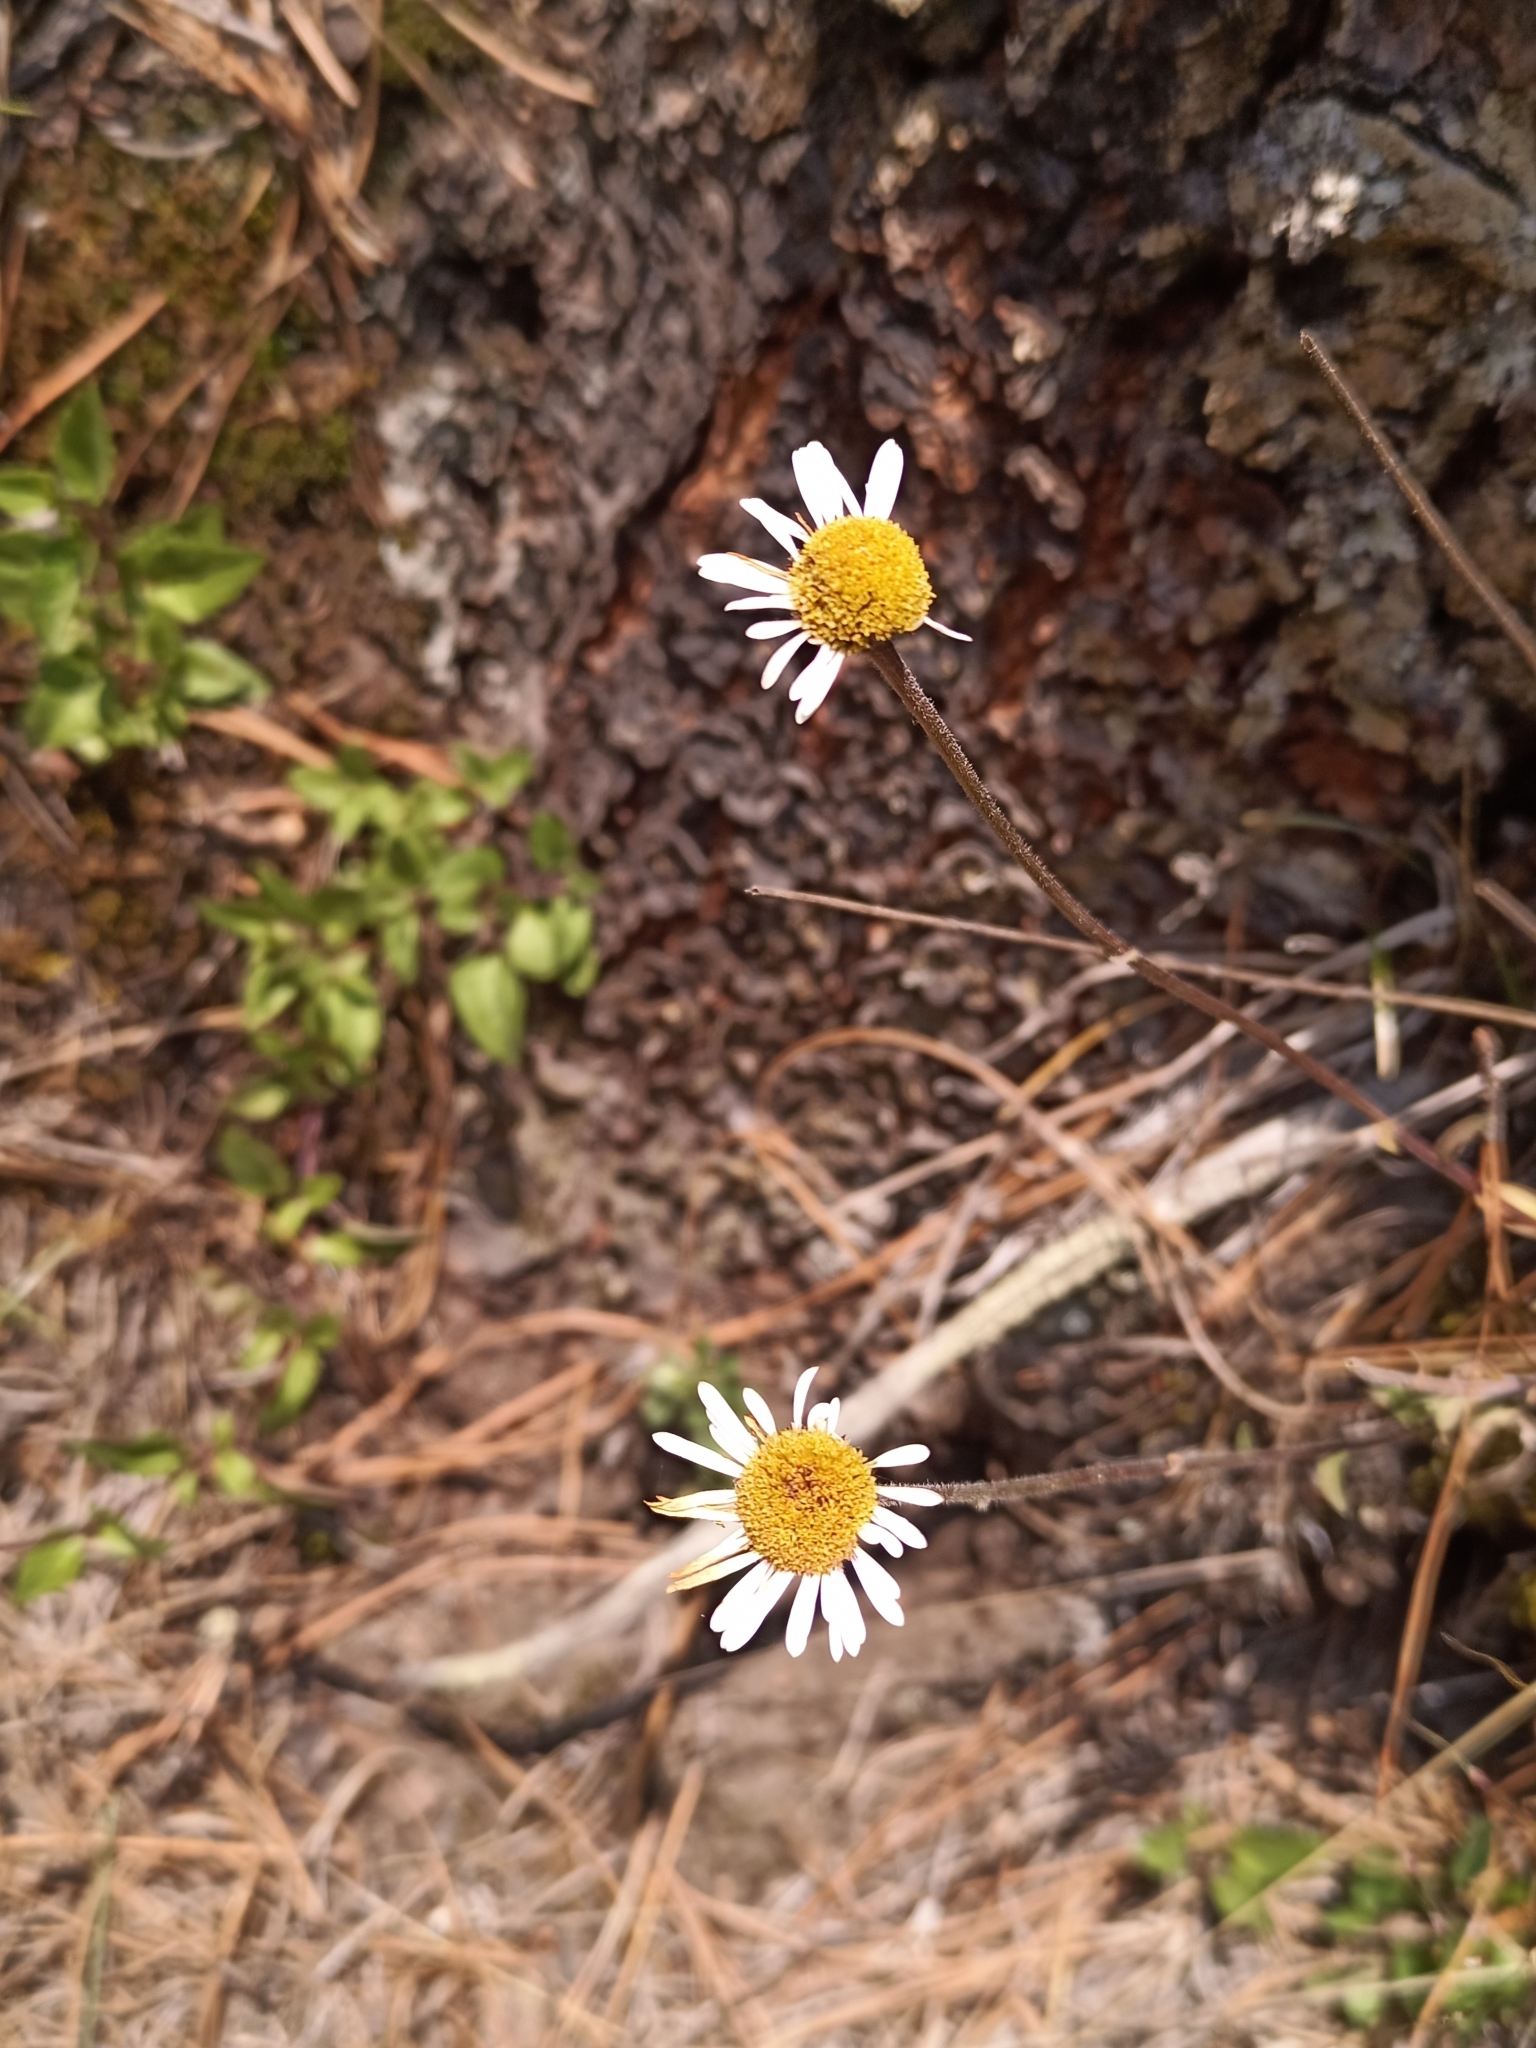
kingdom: Plantae
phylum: Tracheophyta
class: Magnoliopsida
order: Asterales
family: Asteraceae
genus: Erigeron
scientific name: Erigeron galeottii
